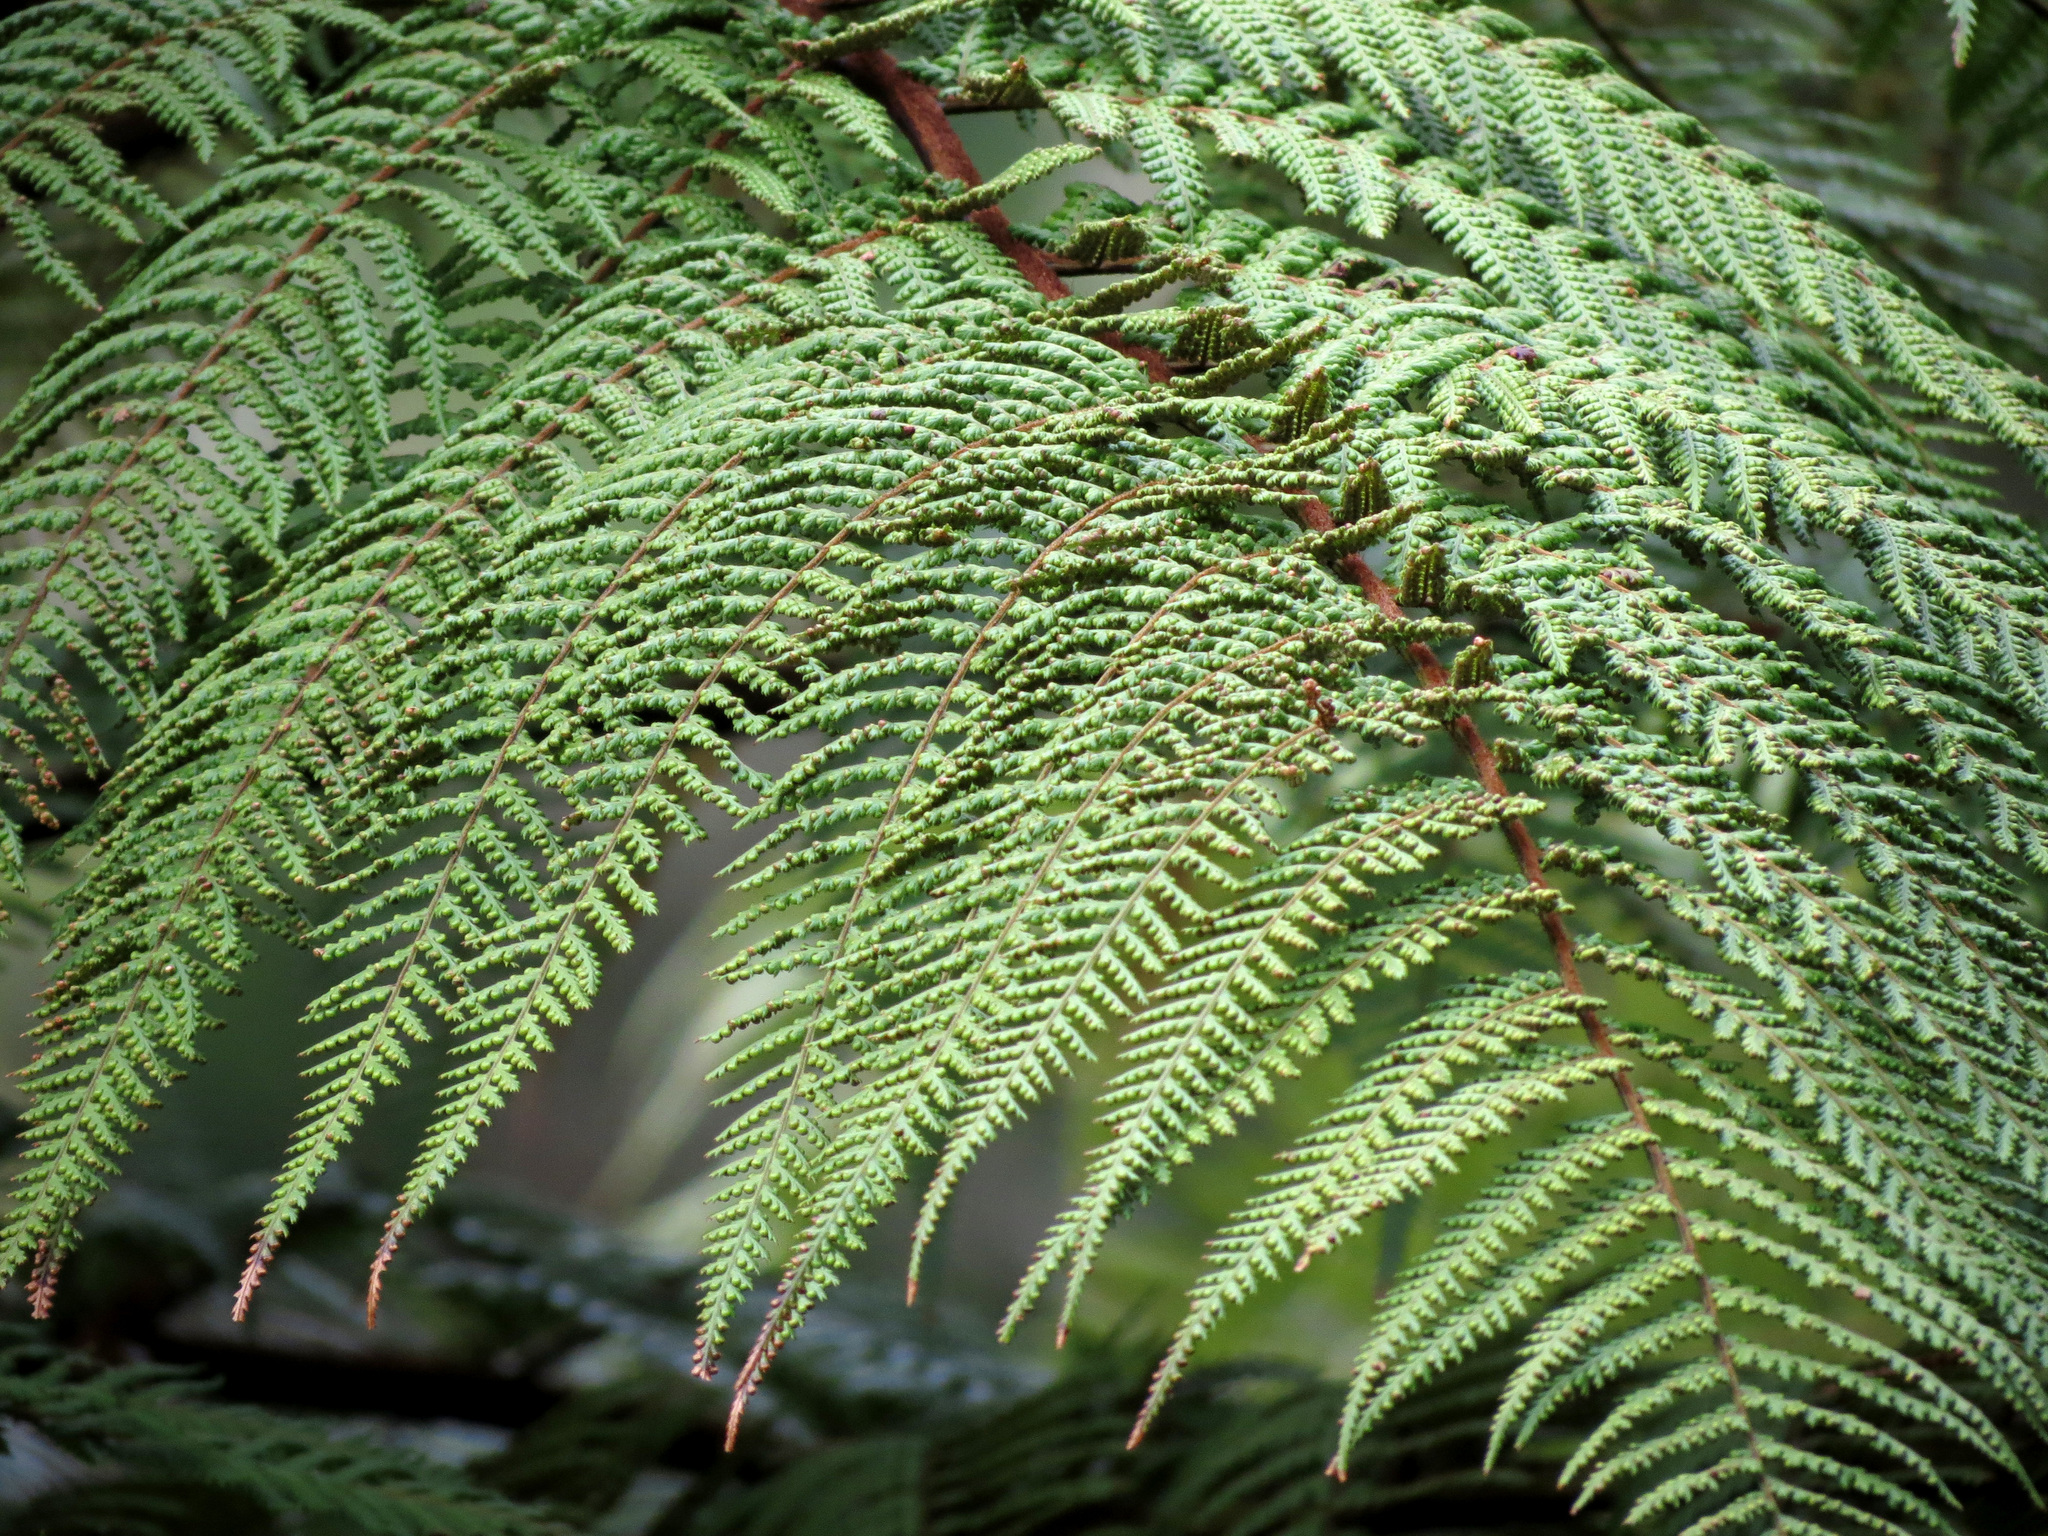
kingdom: Plantae
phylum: Tracheophyta
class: Polypodiopsida
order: Cyatheales
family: Dicksoniaceae
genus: Dicksonia
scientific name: Dicksonia squarrosa
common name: Hard treefern
